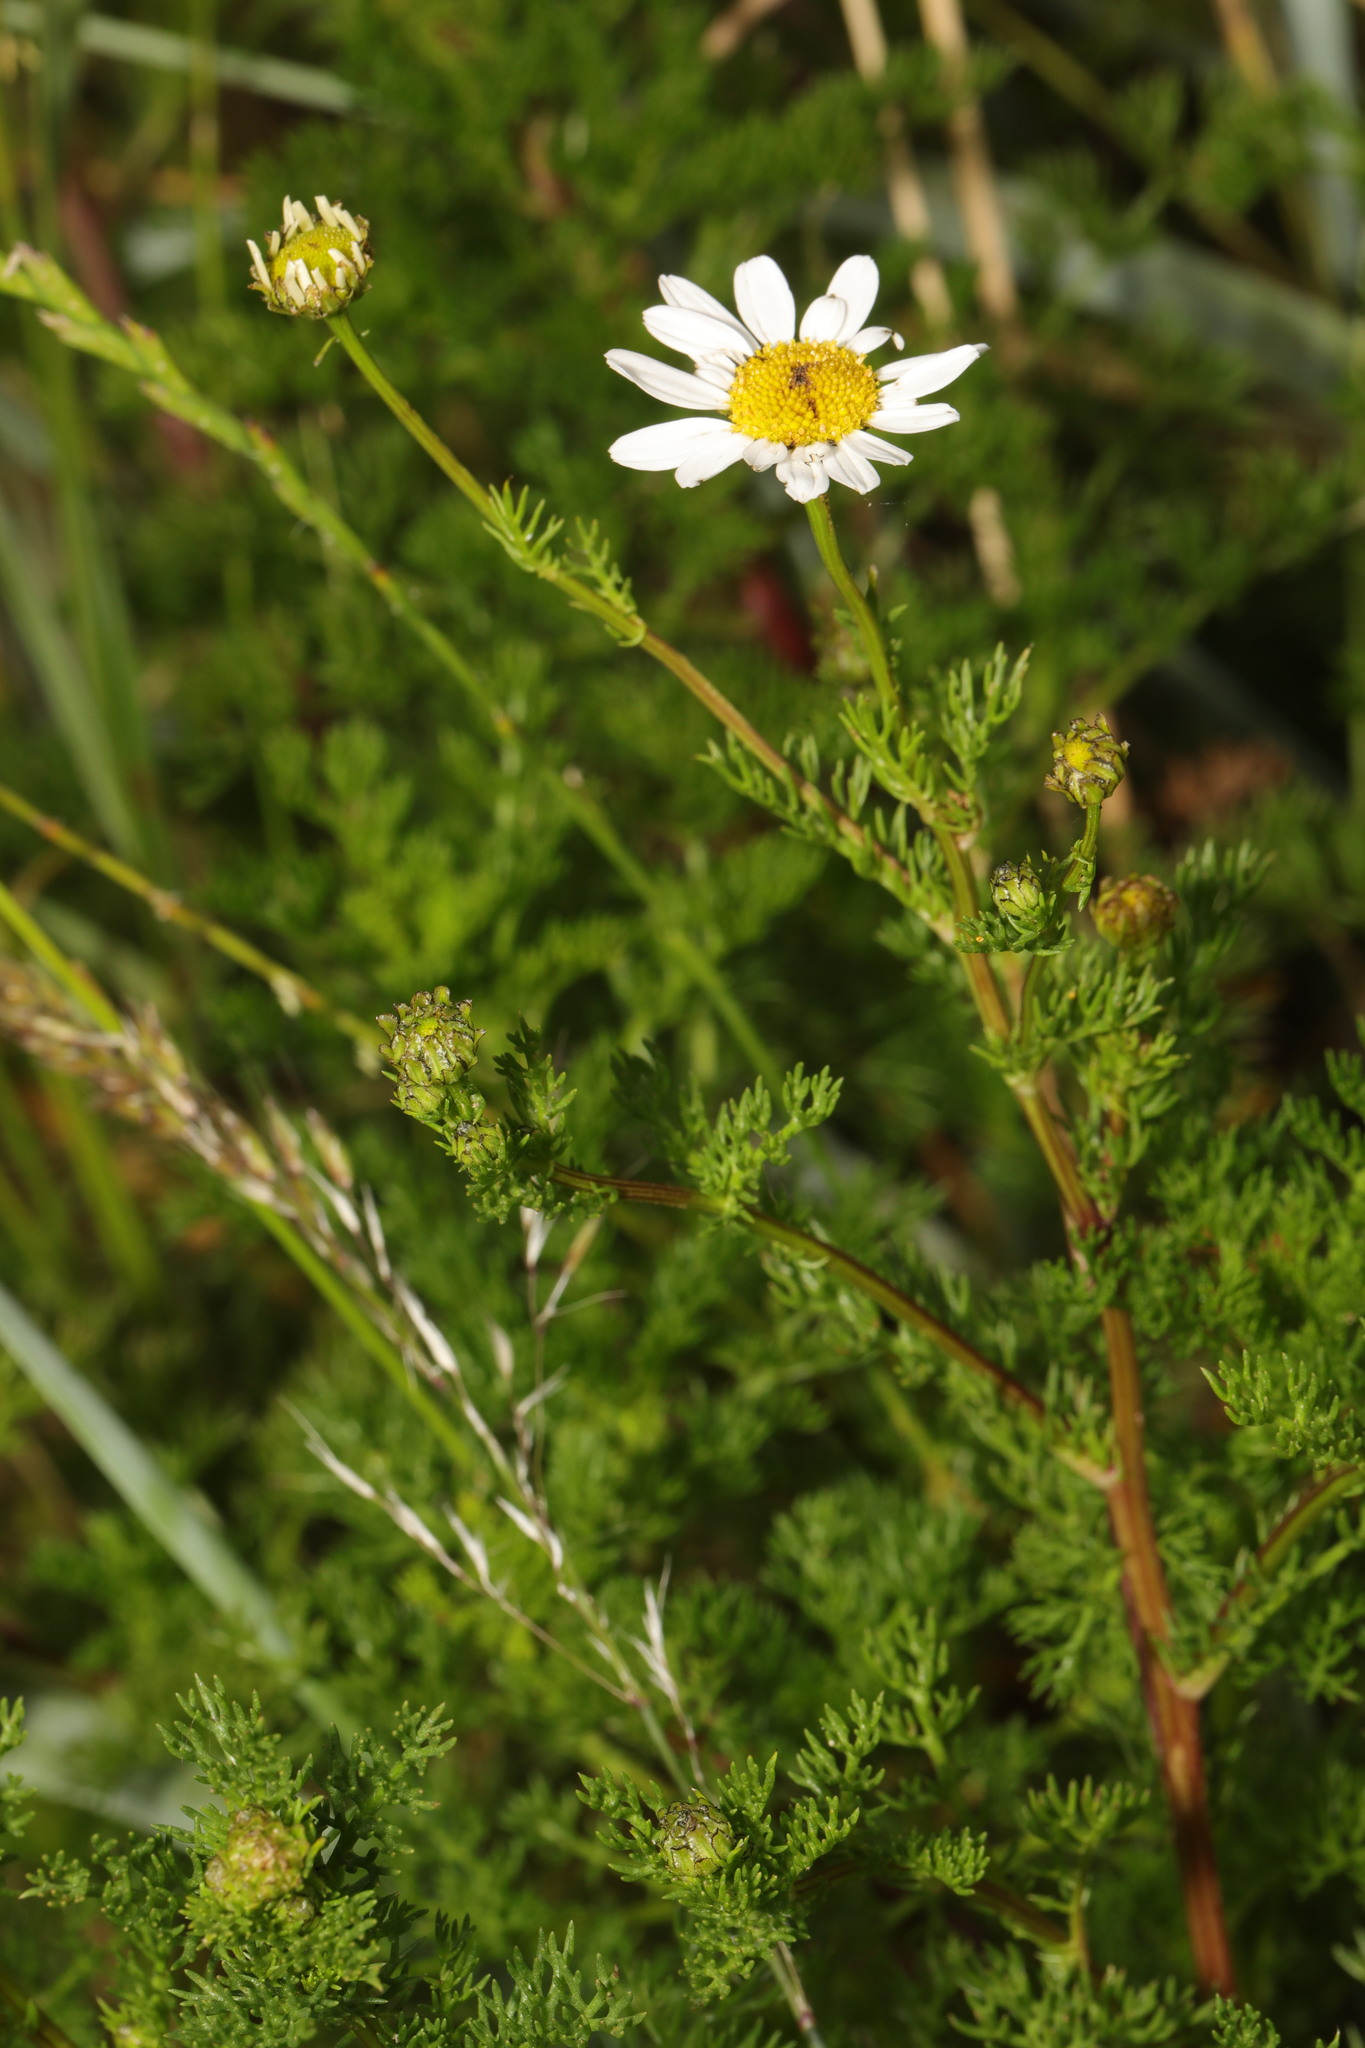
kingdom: Plantae
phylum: Tracheophyta
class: Magnoliopsida
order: Asterales
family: Asteraceae
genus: Tripleurospermum
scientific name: Tripleurospermum maritimum
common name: Sea mayweed
